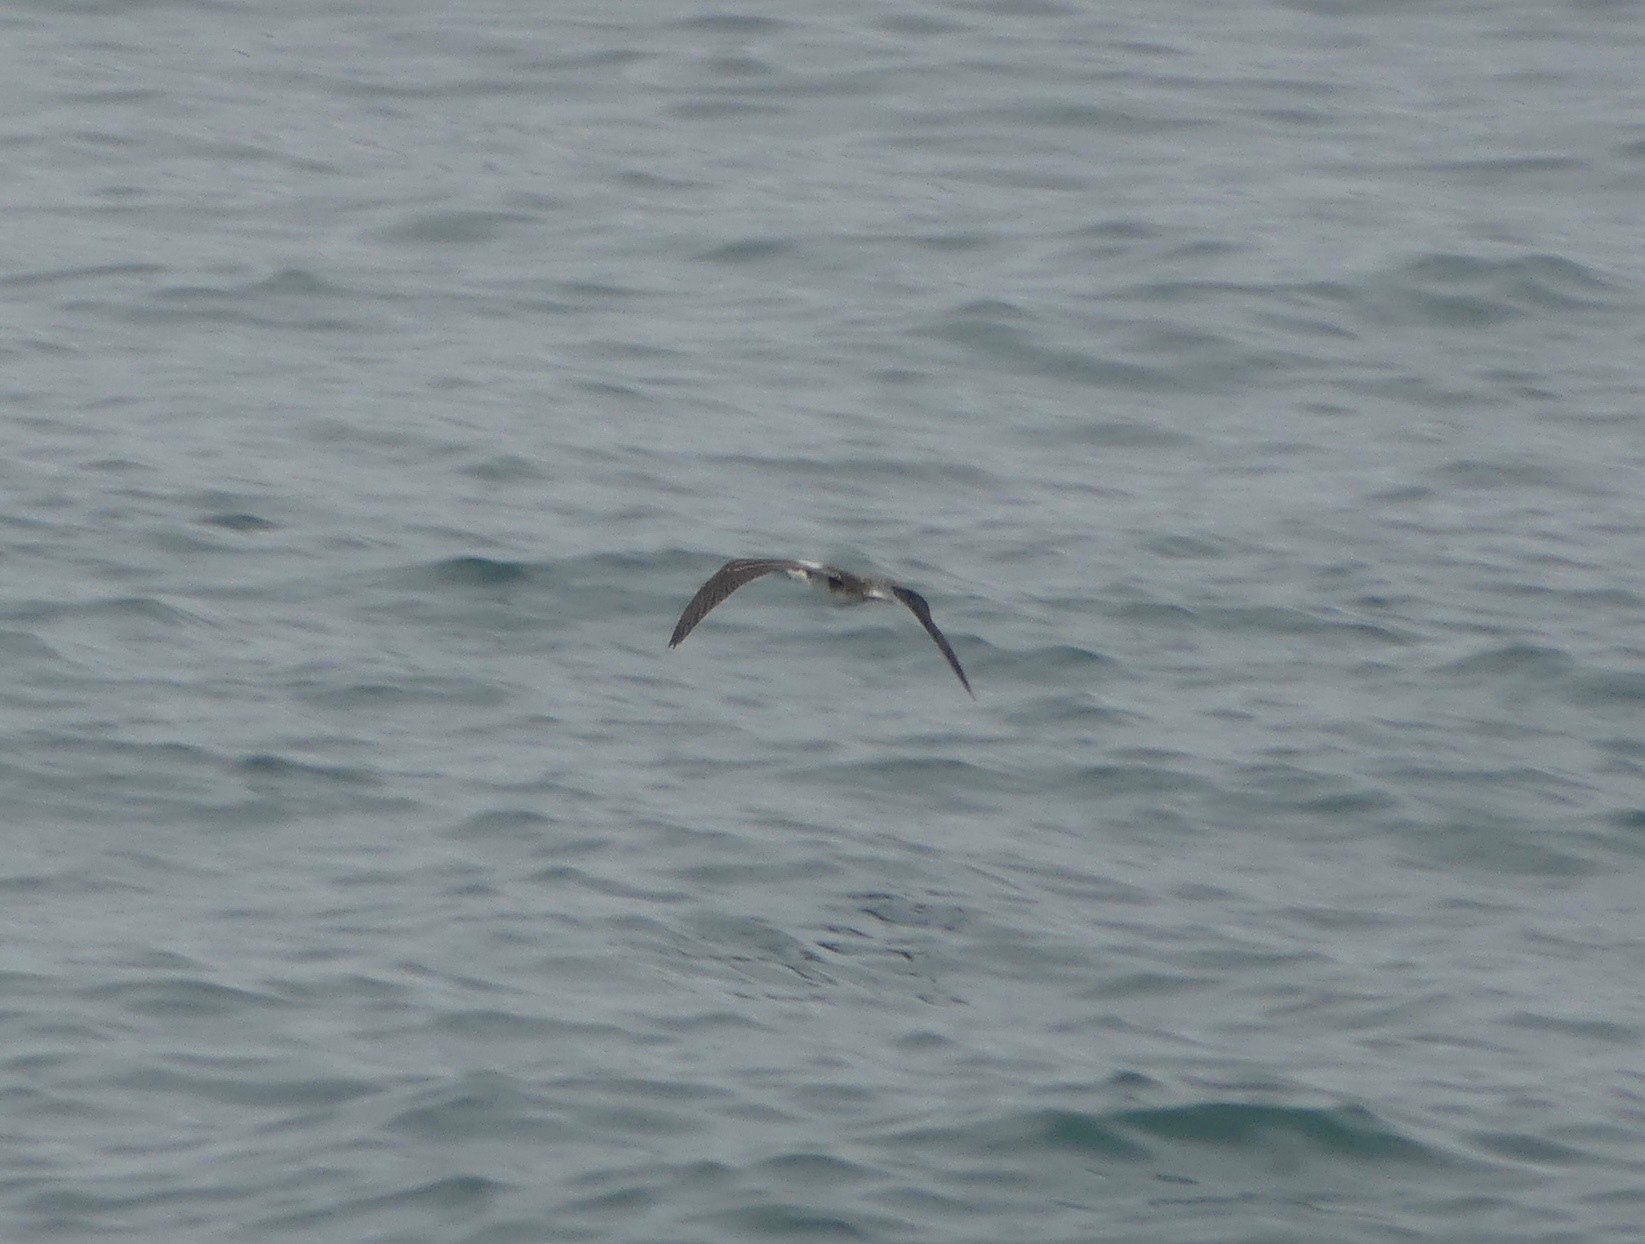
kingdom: Animalia
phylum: Chordata
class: Aves
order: Suliformes
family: Sulidae
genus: Sula
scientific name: Sula variegata
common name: Peruvian booby
